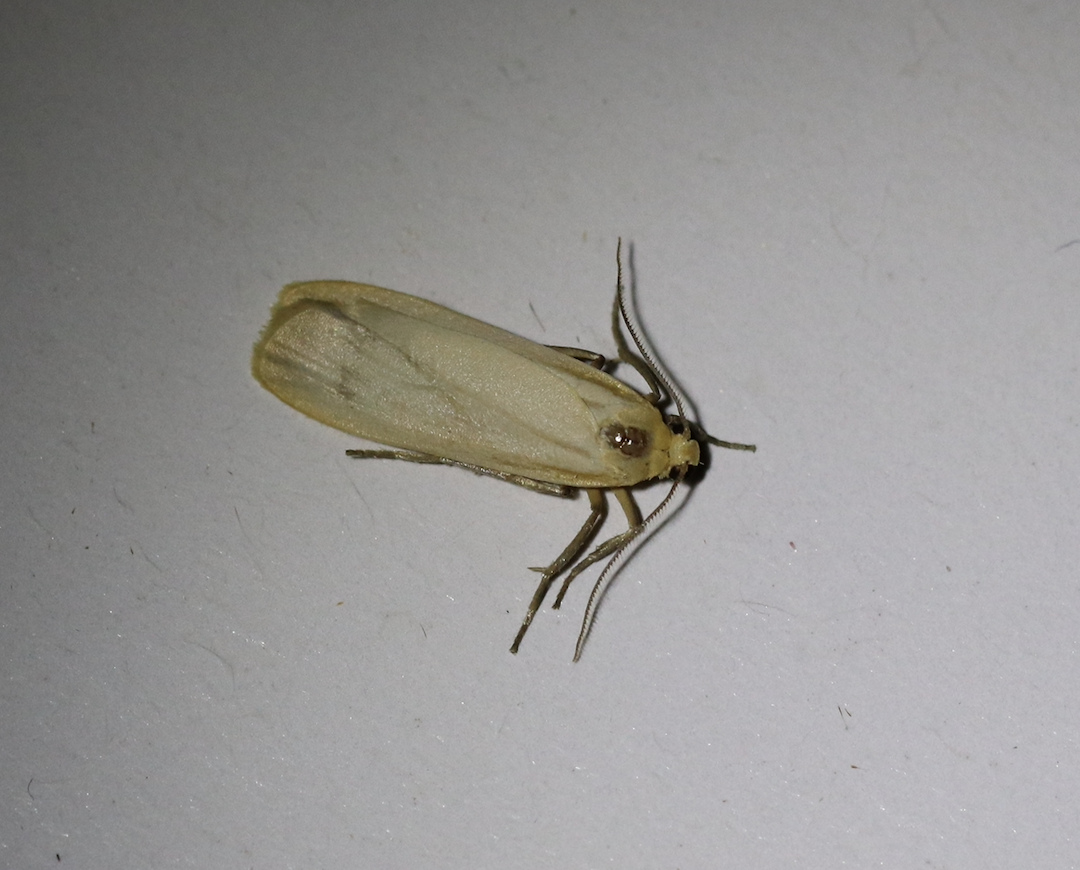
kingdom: Animalia
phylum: Arthropoda
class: Insecta
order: Lepidoptera
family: Erebidae
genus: Katha
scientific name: Katha depressa
